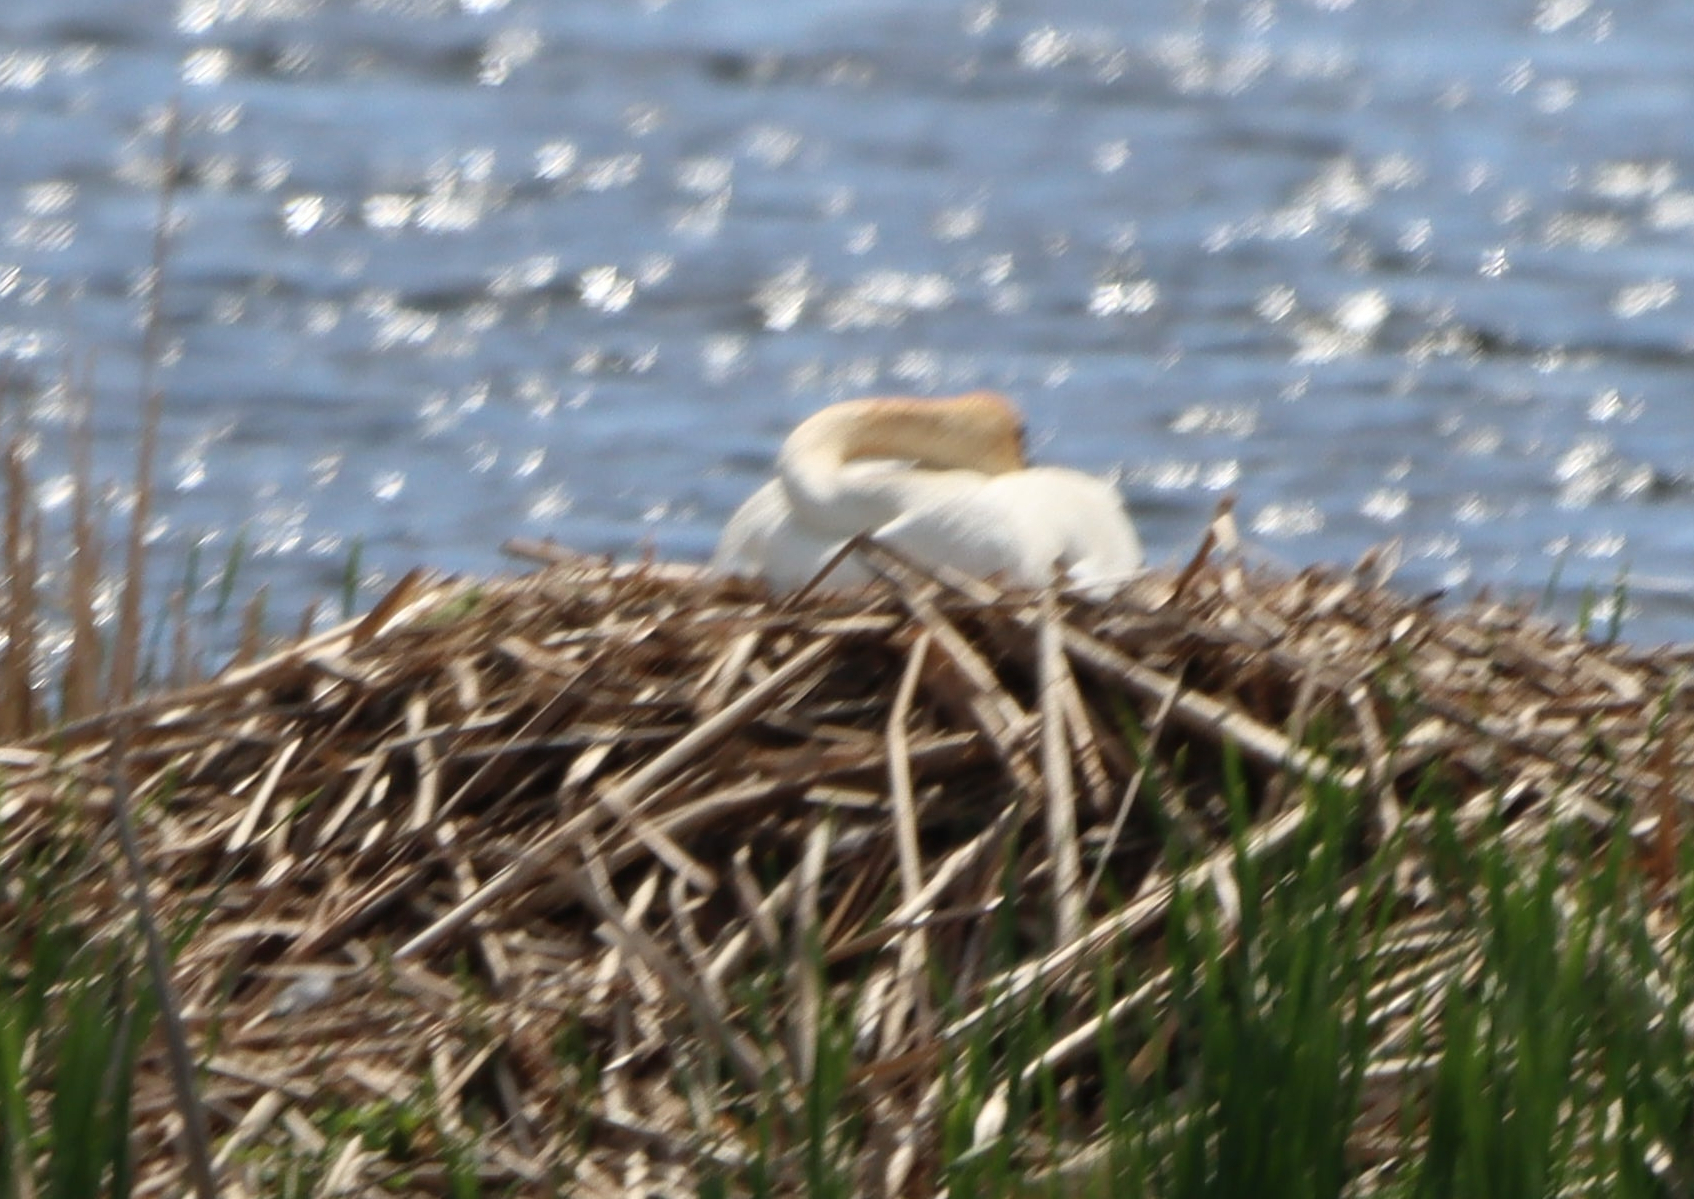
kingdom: Animalia
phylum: Chordata
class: Aves
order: Anseriformes
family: Anatidae
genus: Cygnus
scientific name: Cygnus buccinator
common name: Trumpeter swan
